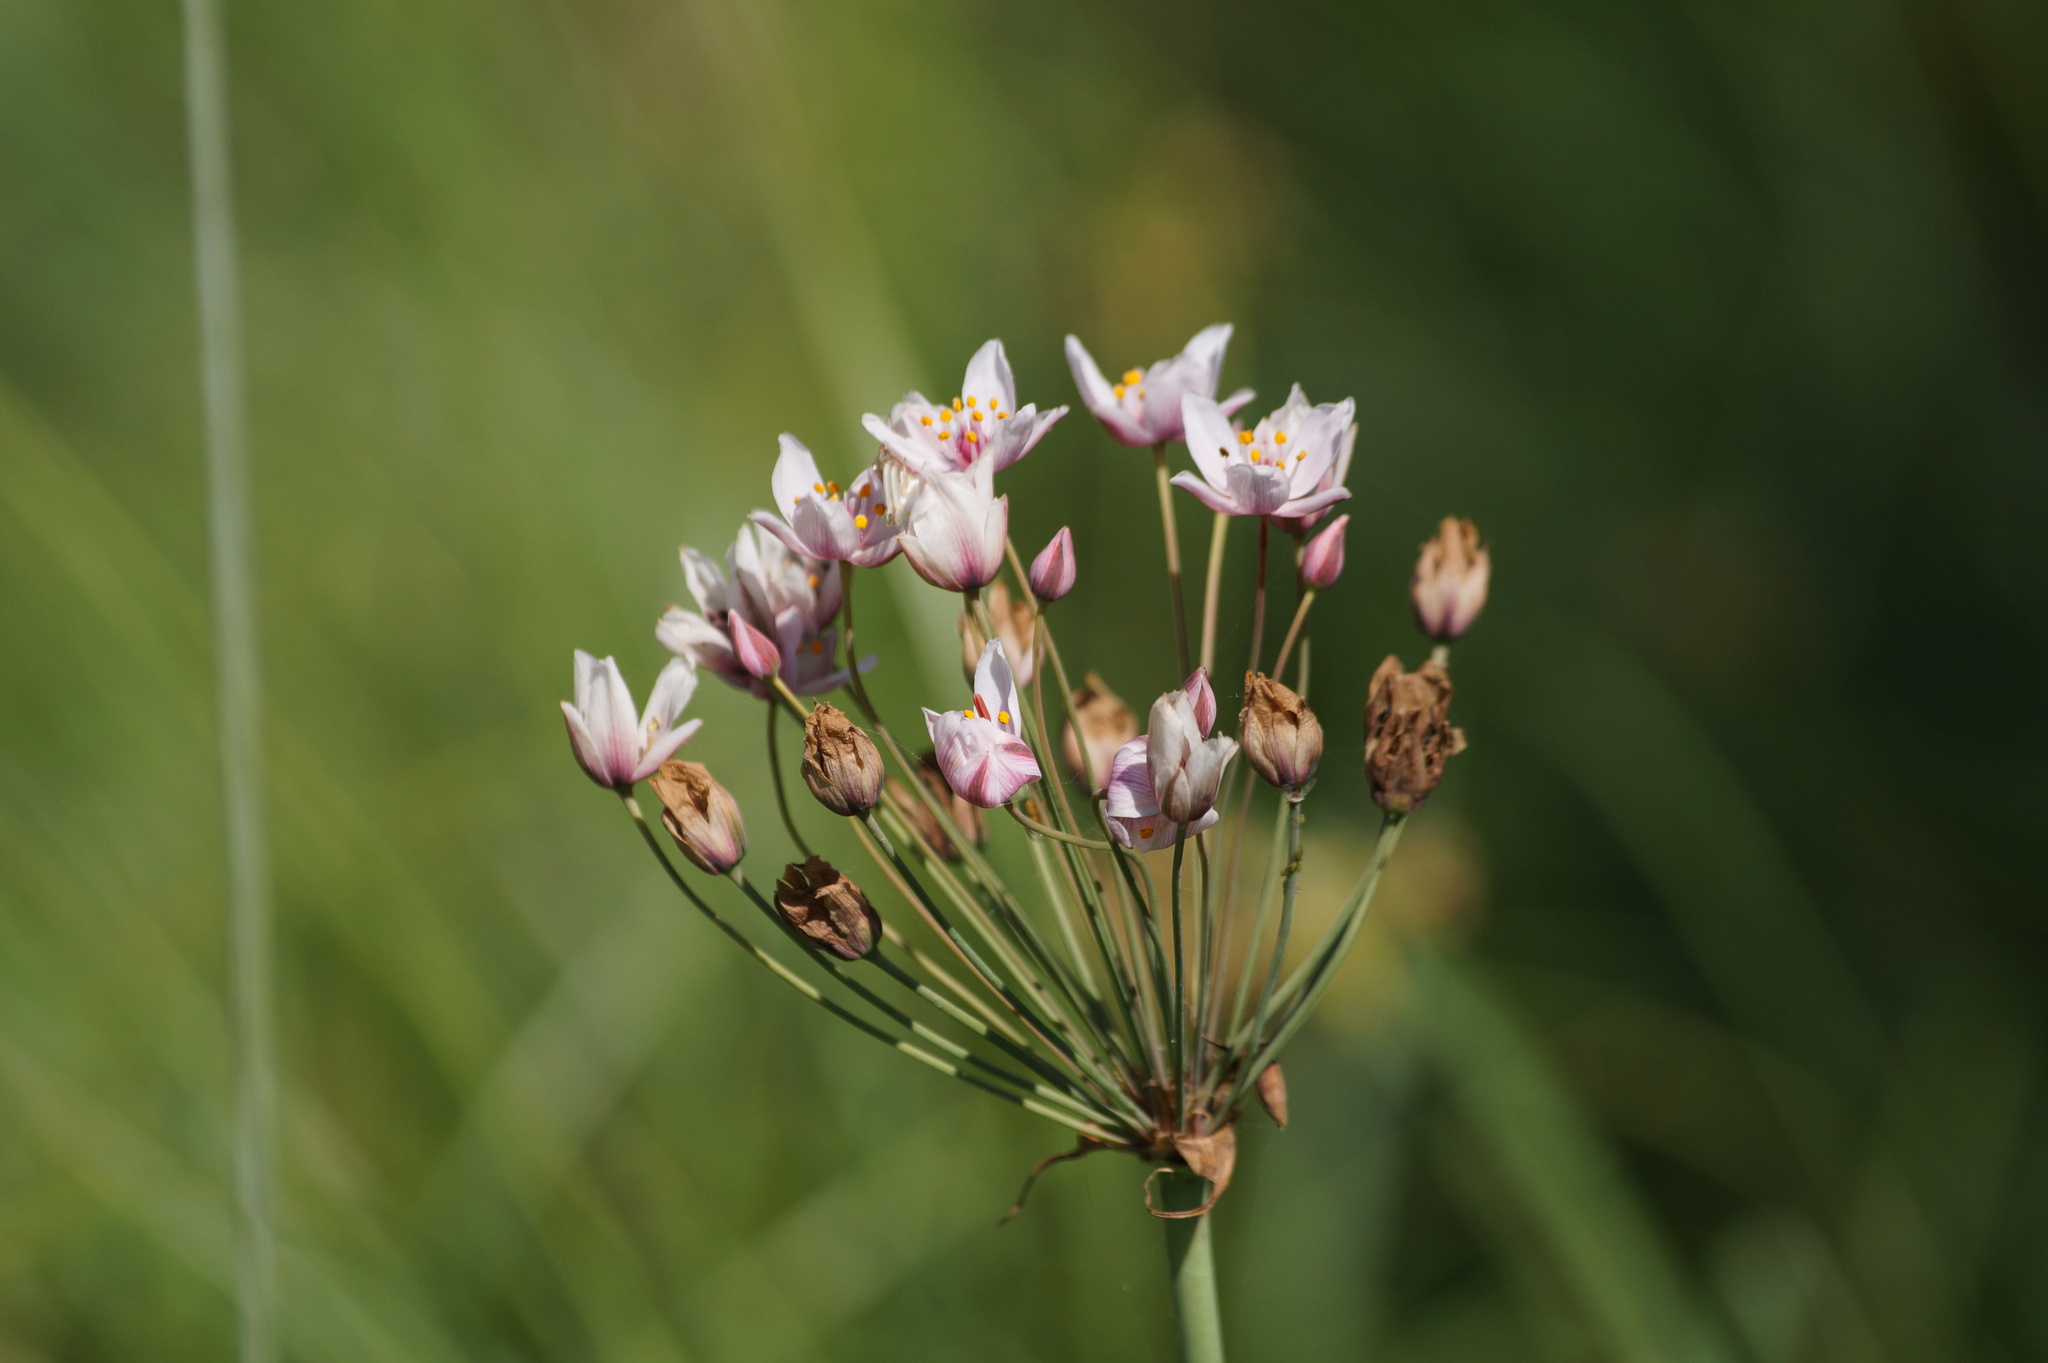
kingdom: Plantae
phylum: Tracheophyta
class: Liliopsida
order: Alismatales
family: Butomaceae
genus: Butomus
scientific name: Butomus umbellatus
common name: Flowering-rush
